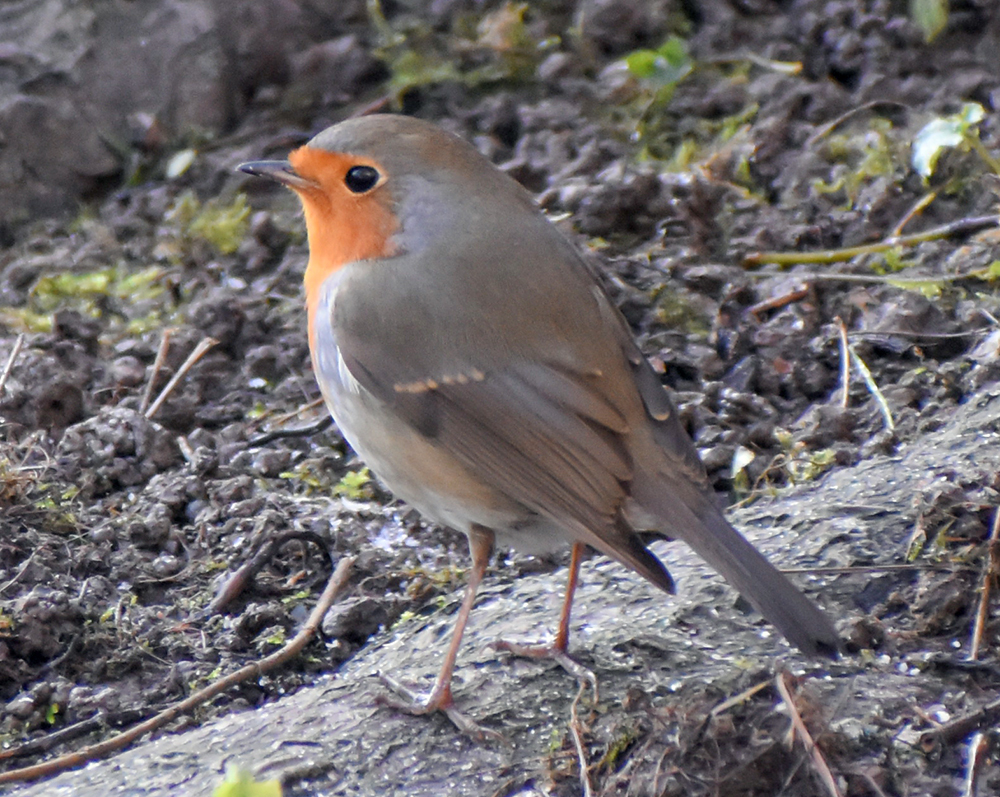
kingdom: Animalia
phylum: Chordata
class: Aves
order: Passeriformes
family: Muscicapidae
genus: Erithacus
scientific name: Erithacus rubecula
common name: European robin
